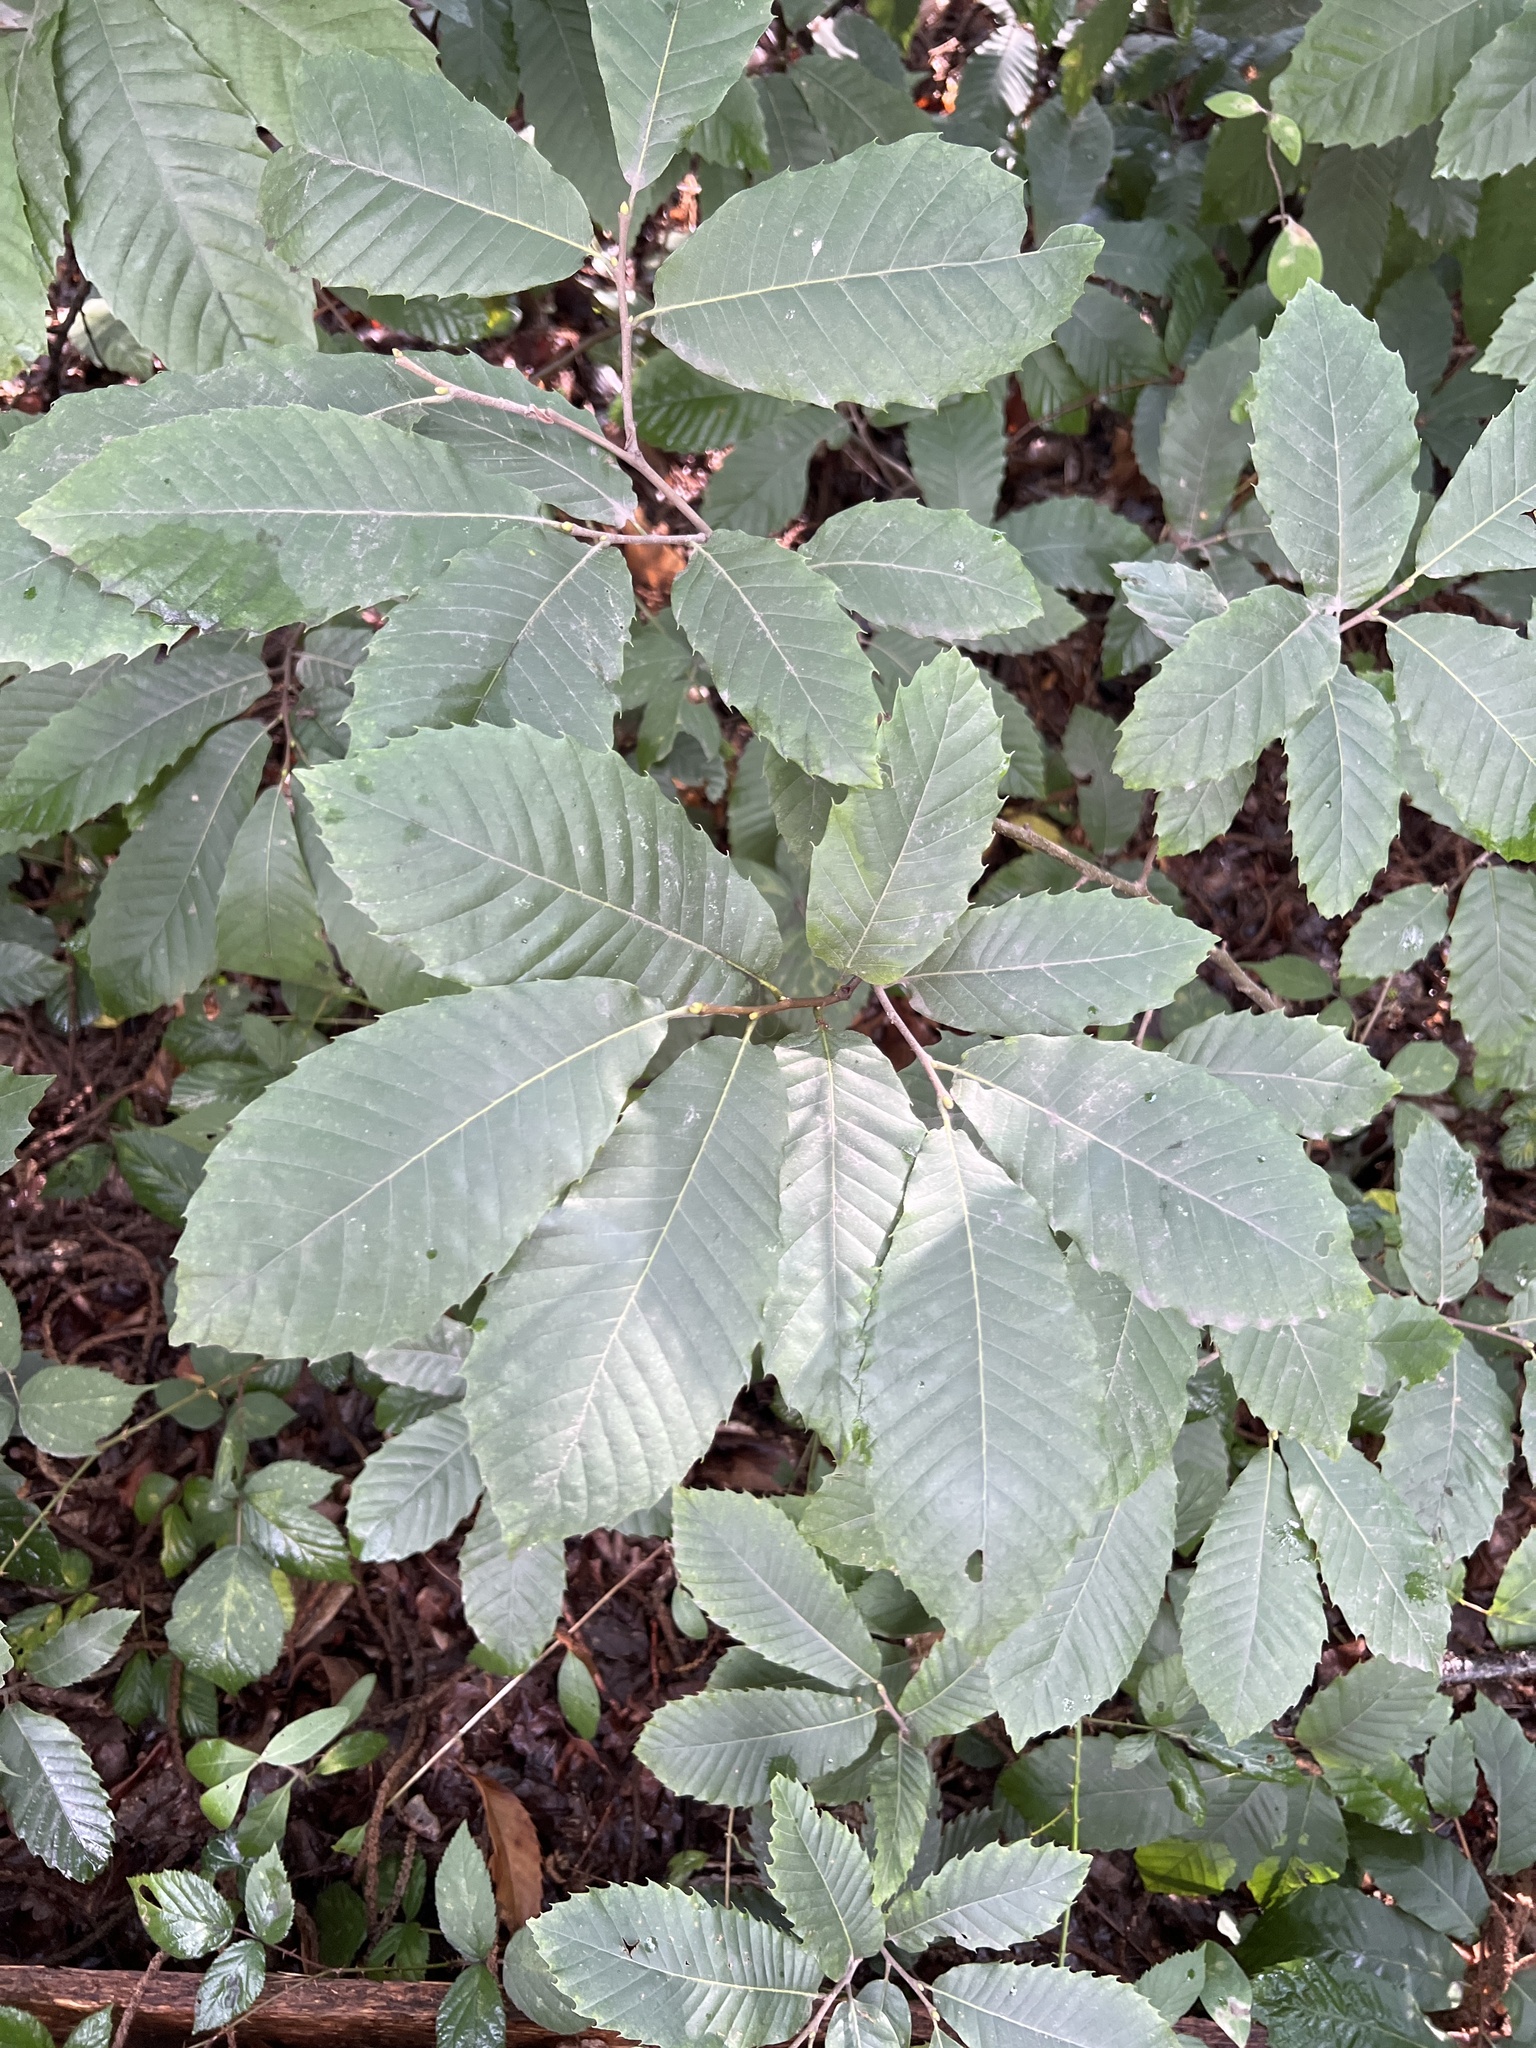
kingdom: Plantae
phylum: Tracheophyta
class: Magnoliopsida
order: Fagales
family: Fagaceae
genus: Castanea
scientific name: Castanea sativa
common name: Sweet chestnut
